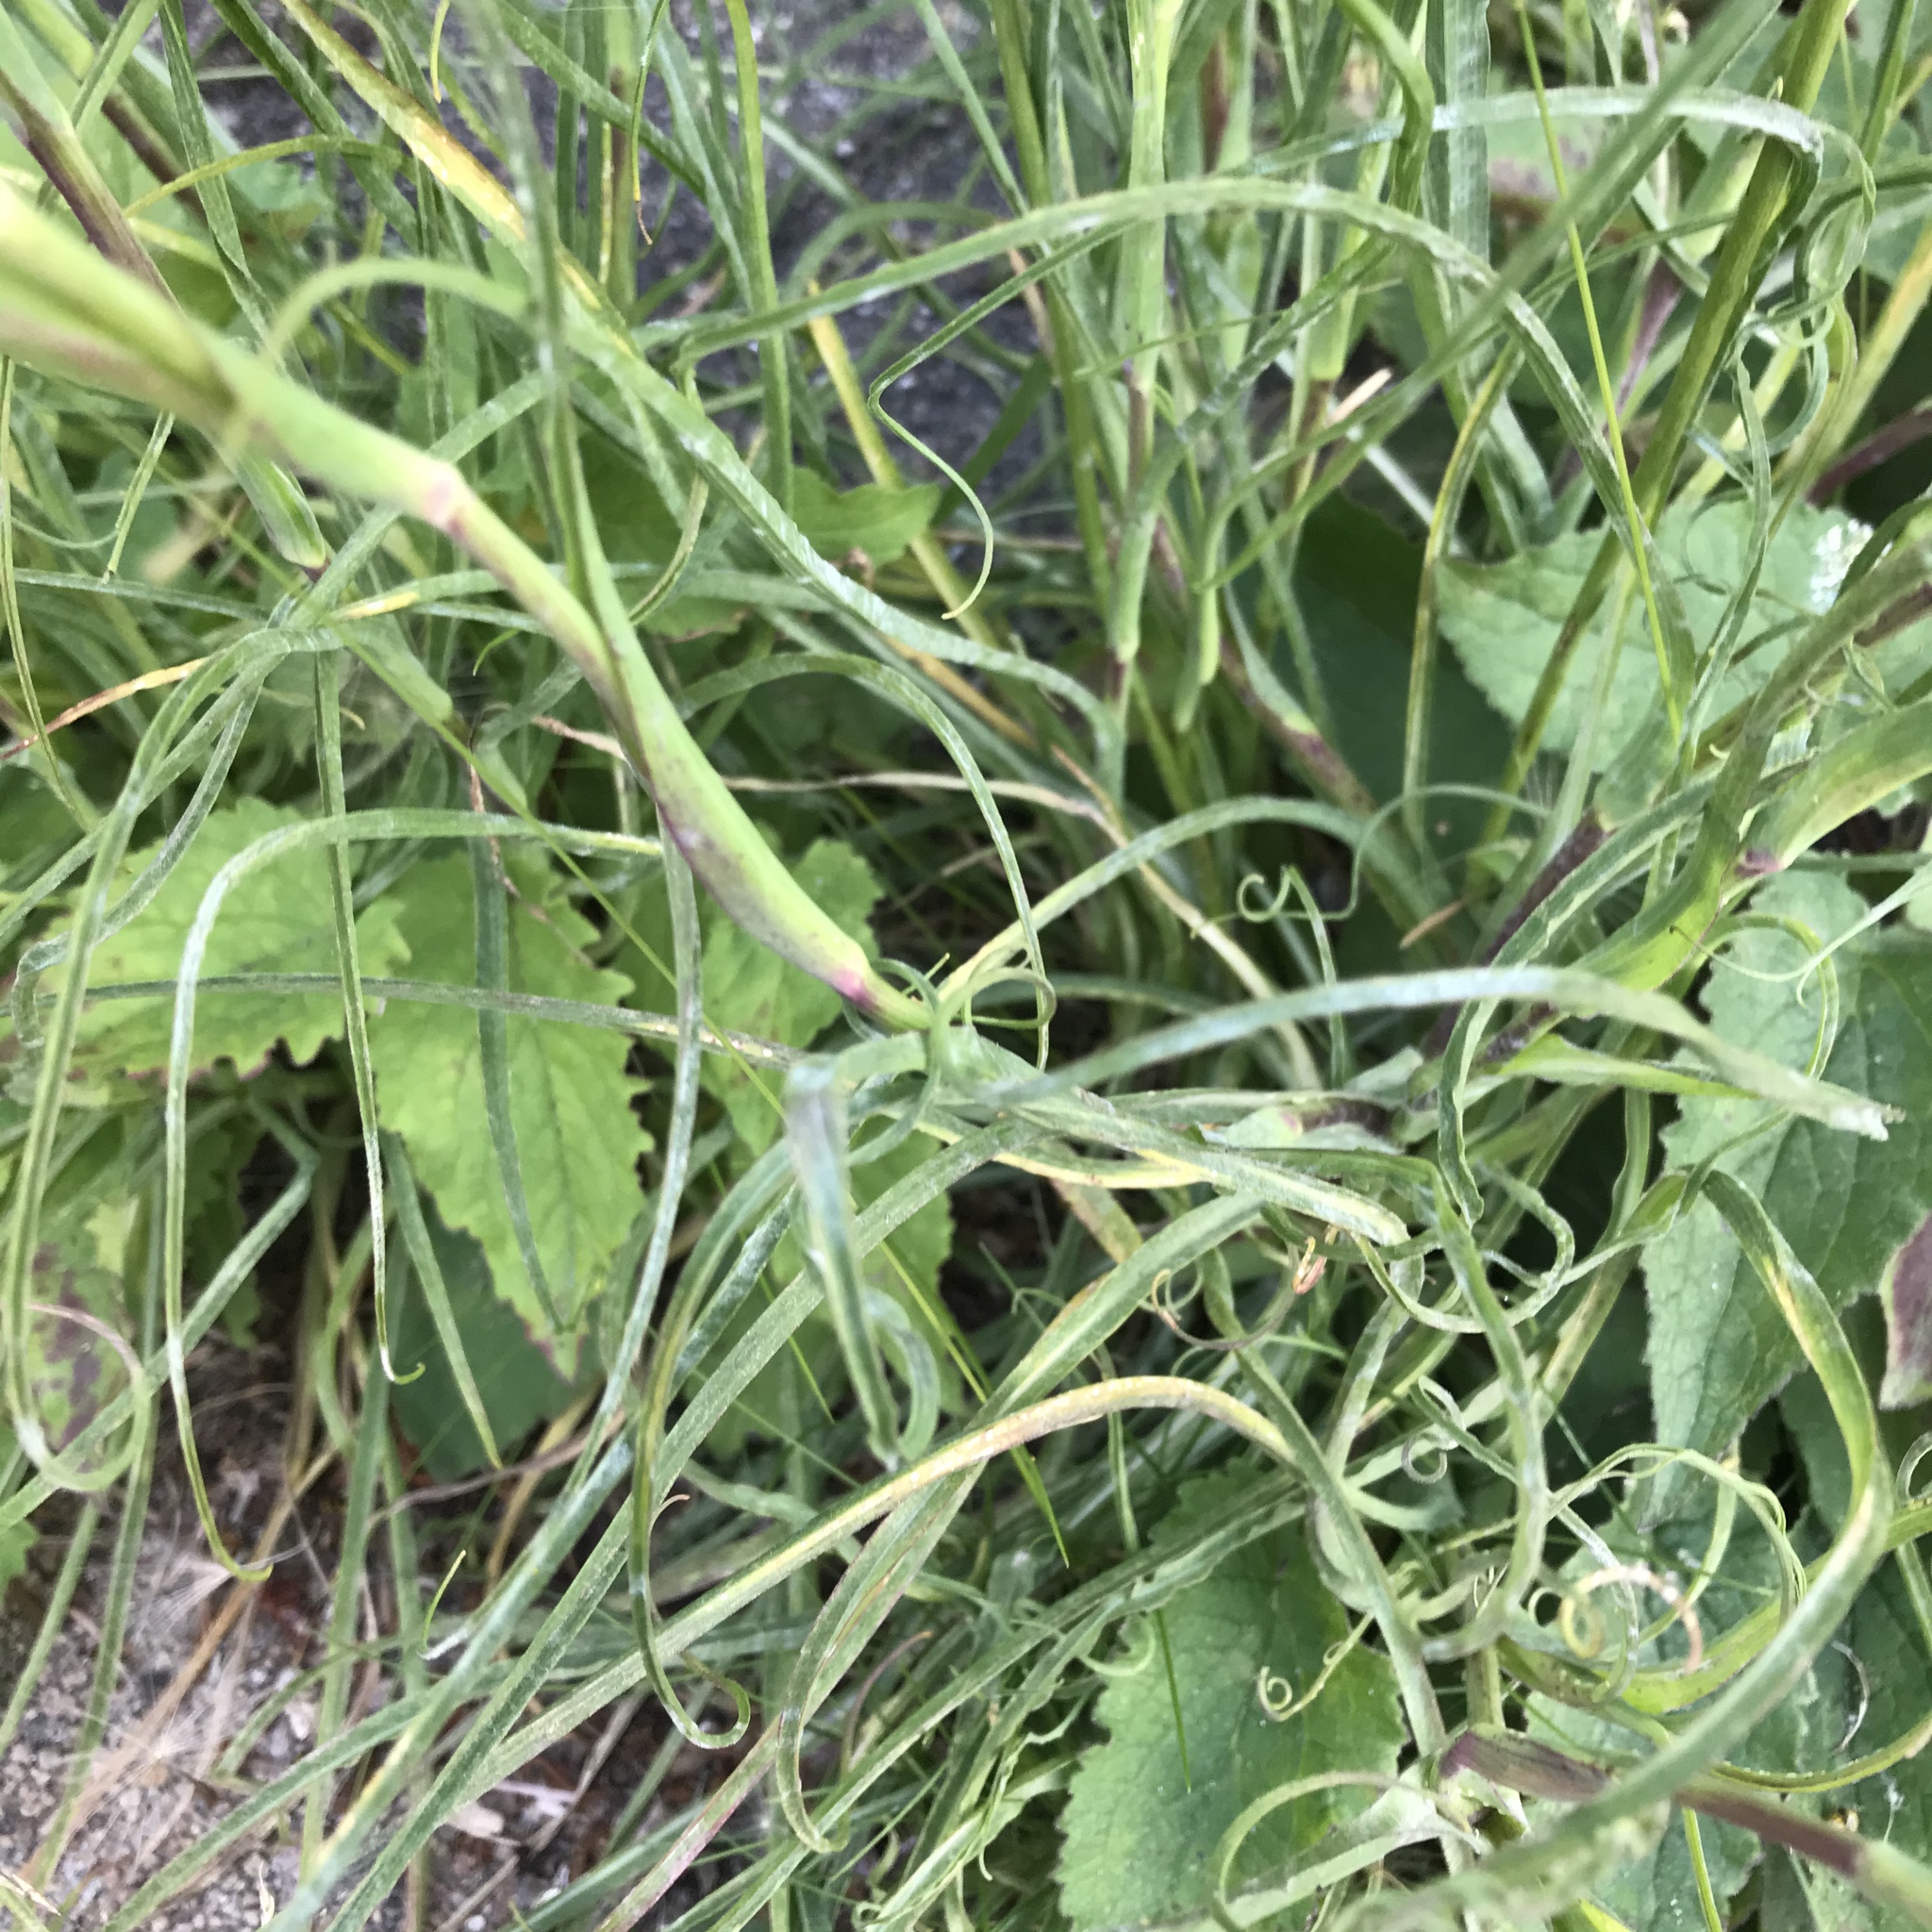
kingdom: Plantae
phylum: Tracheophyta
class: Magnoliopsida
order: Asterales
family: Asteraceae
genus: Tragopogon
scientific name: Tragopogon pratensis
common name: Goat's-beard
